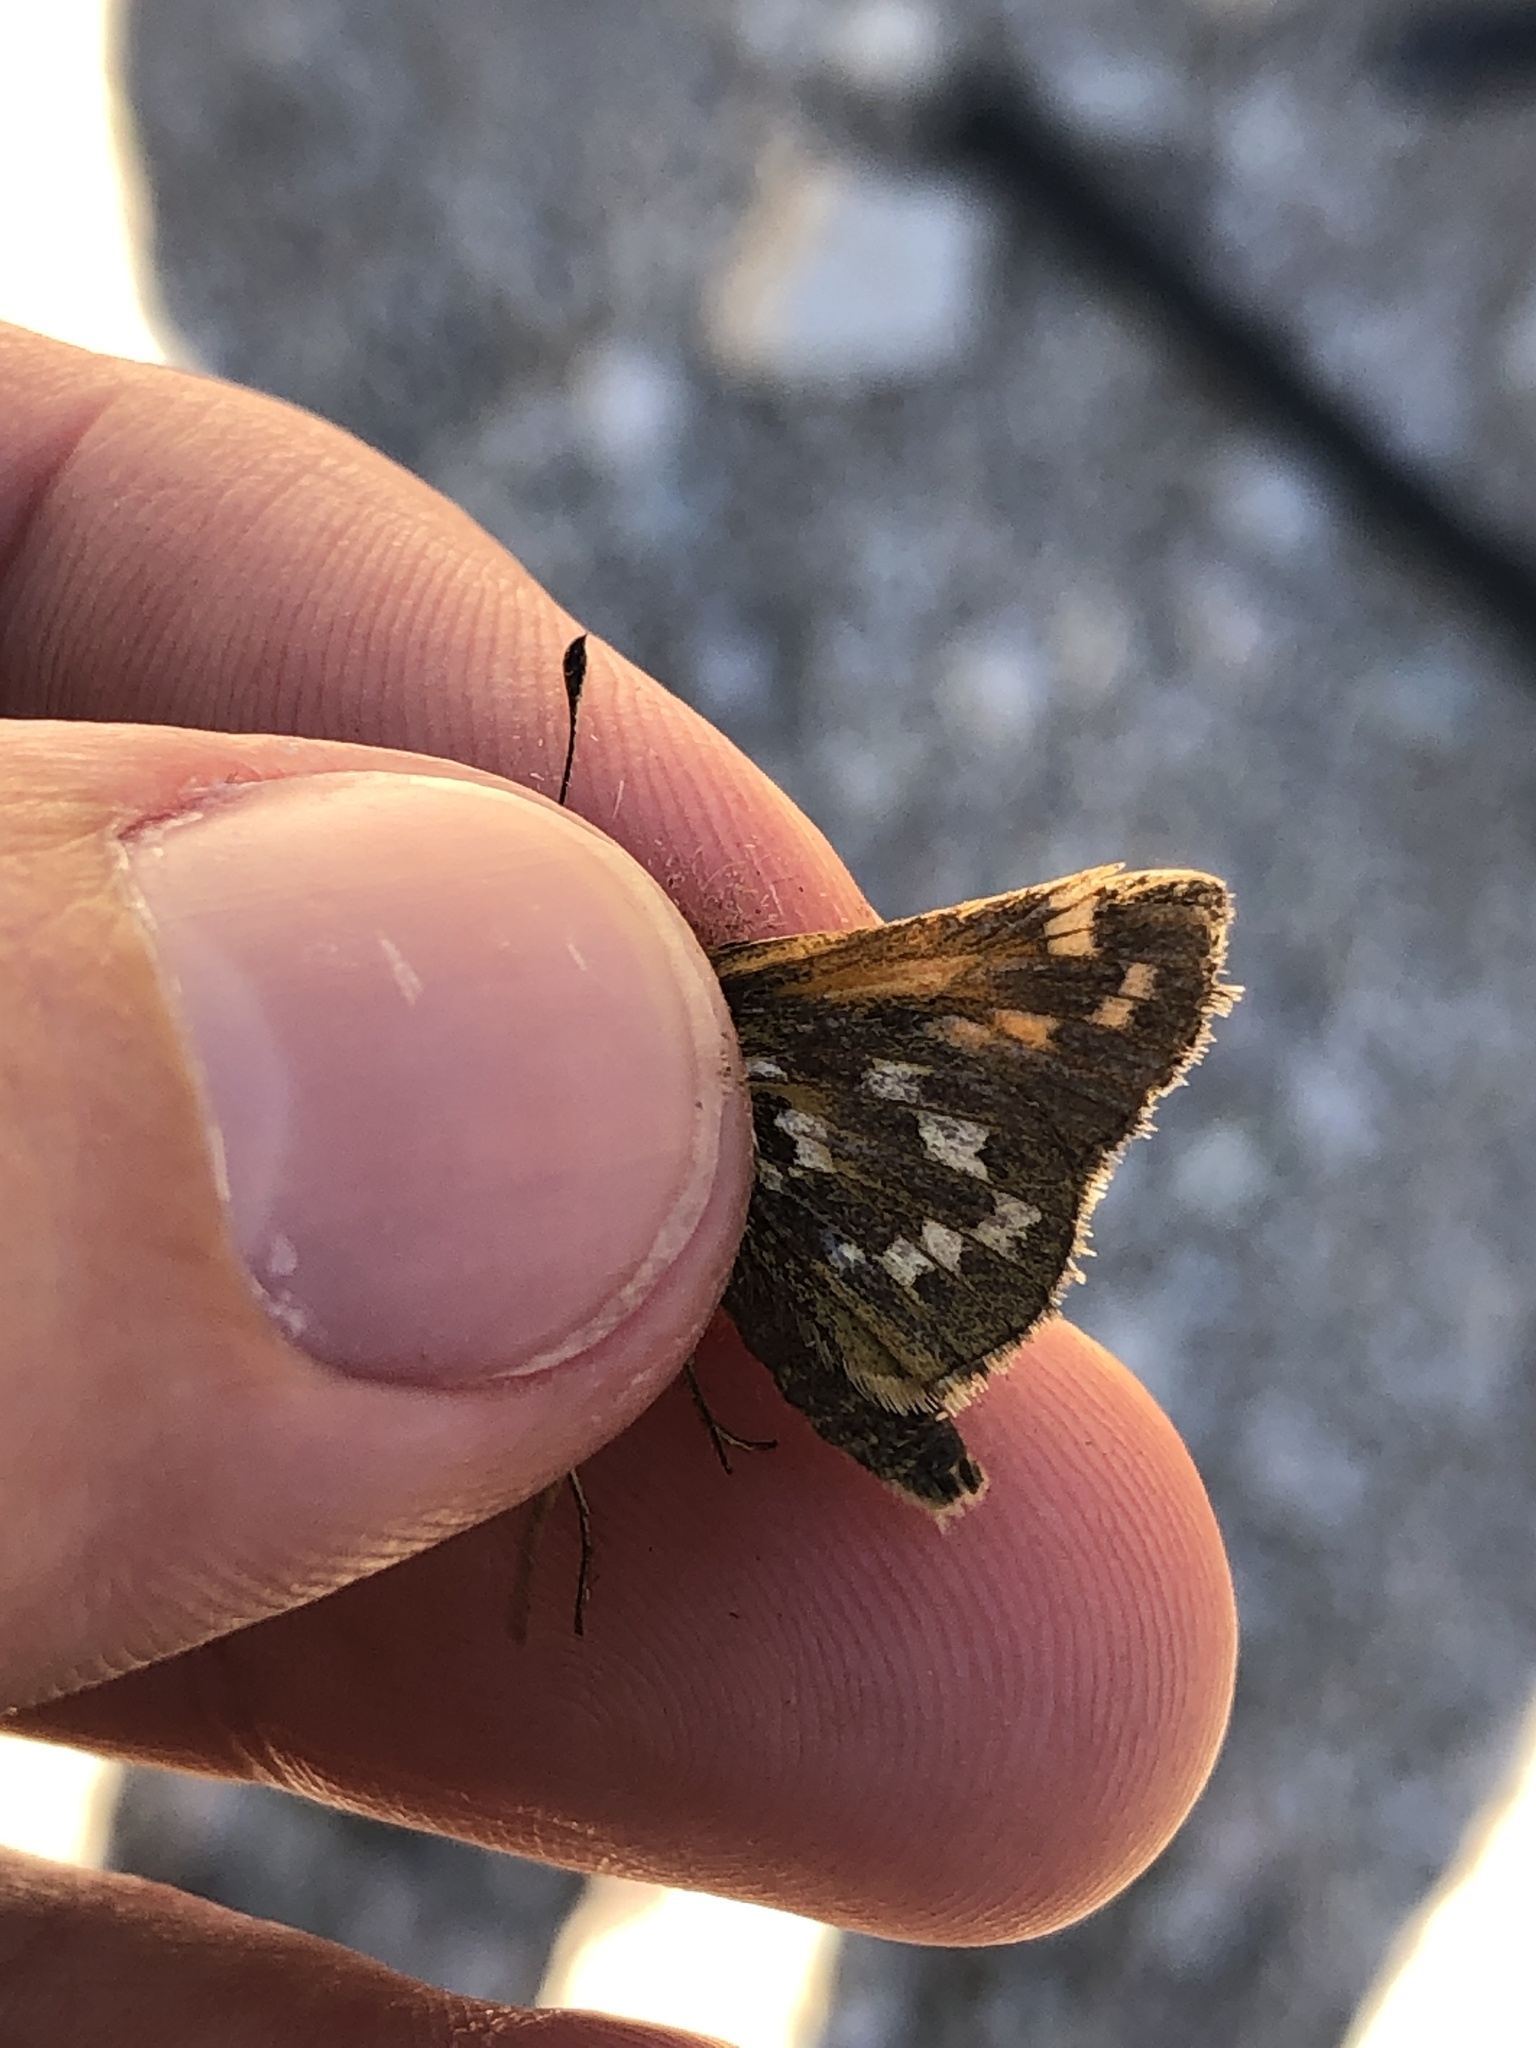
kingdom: Animalia
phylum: Arthropoda
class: Insecta
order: Lepidoptera
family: Hesperiidae
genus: Hesperia
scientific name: Hesperia comma
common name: Common branded skipper
